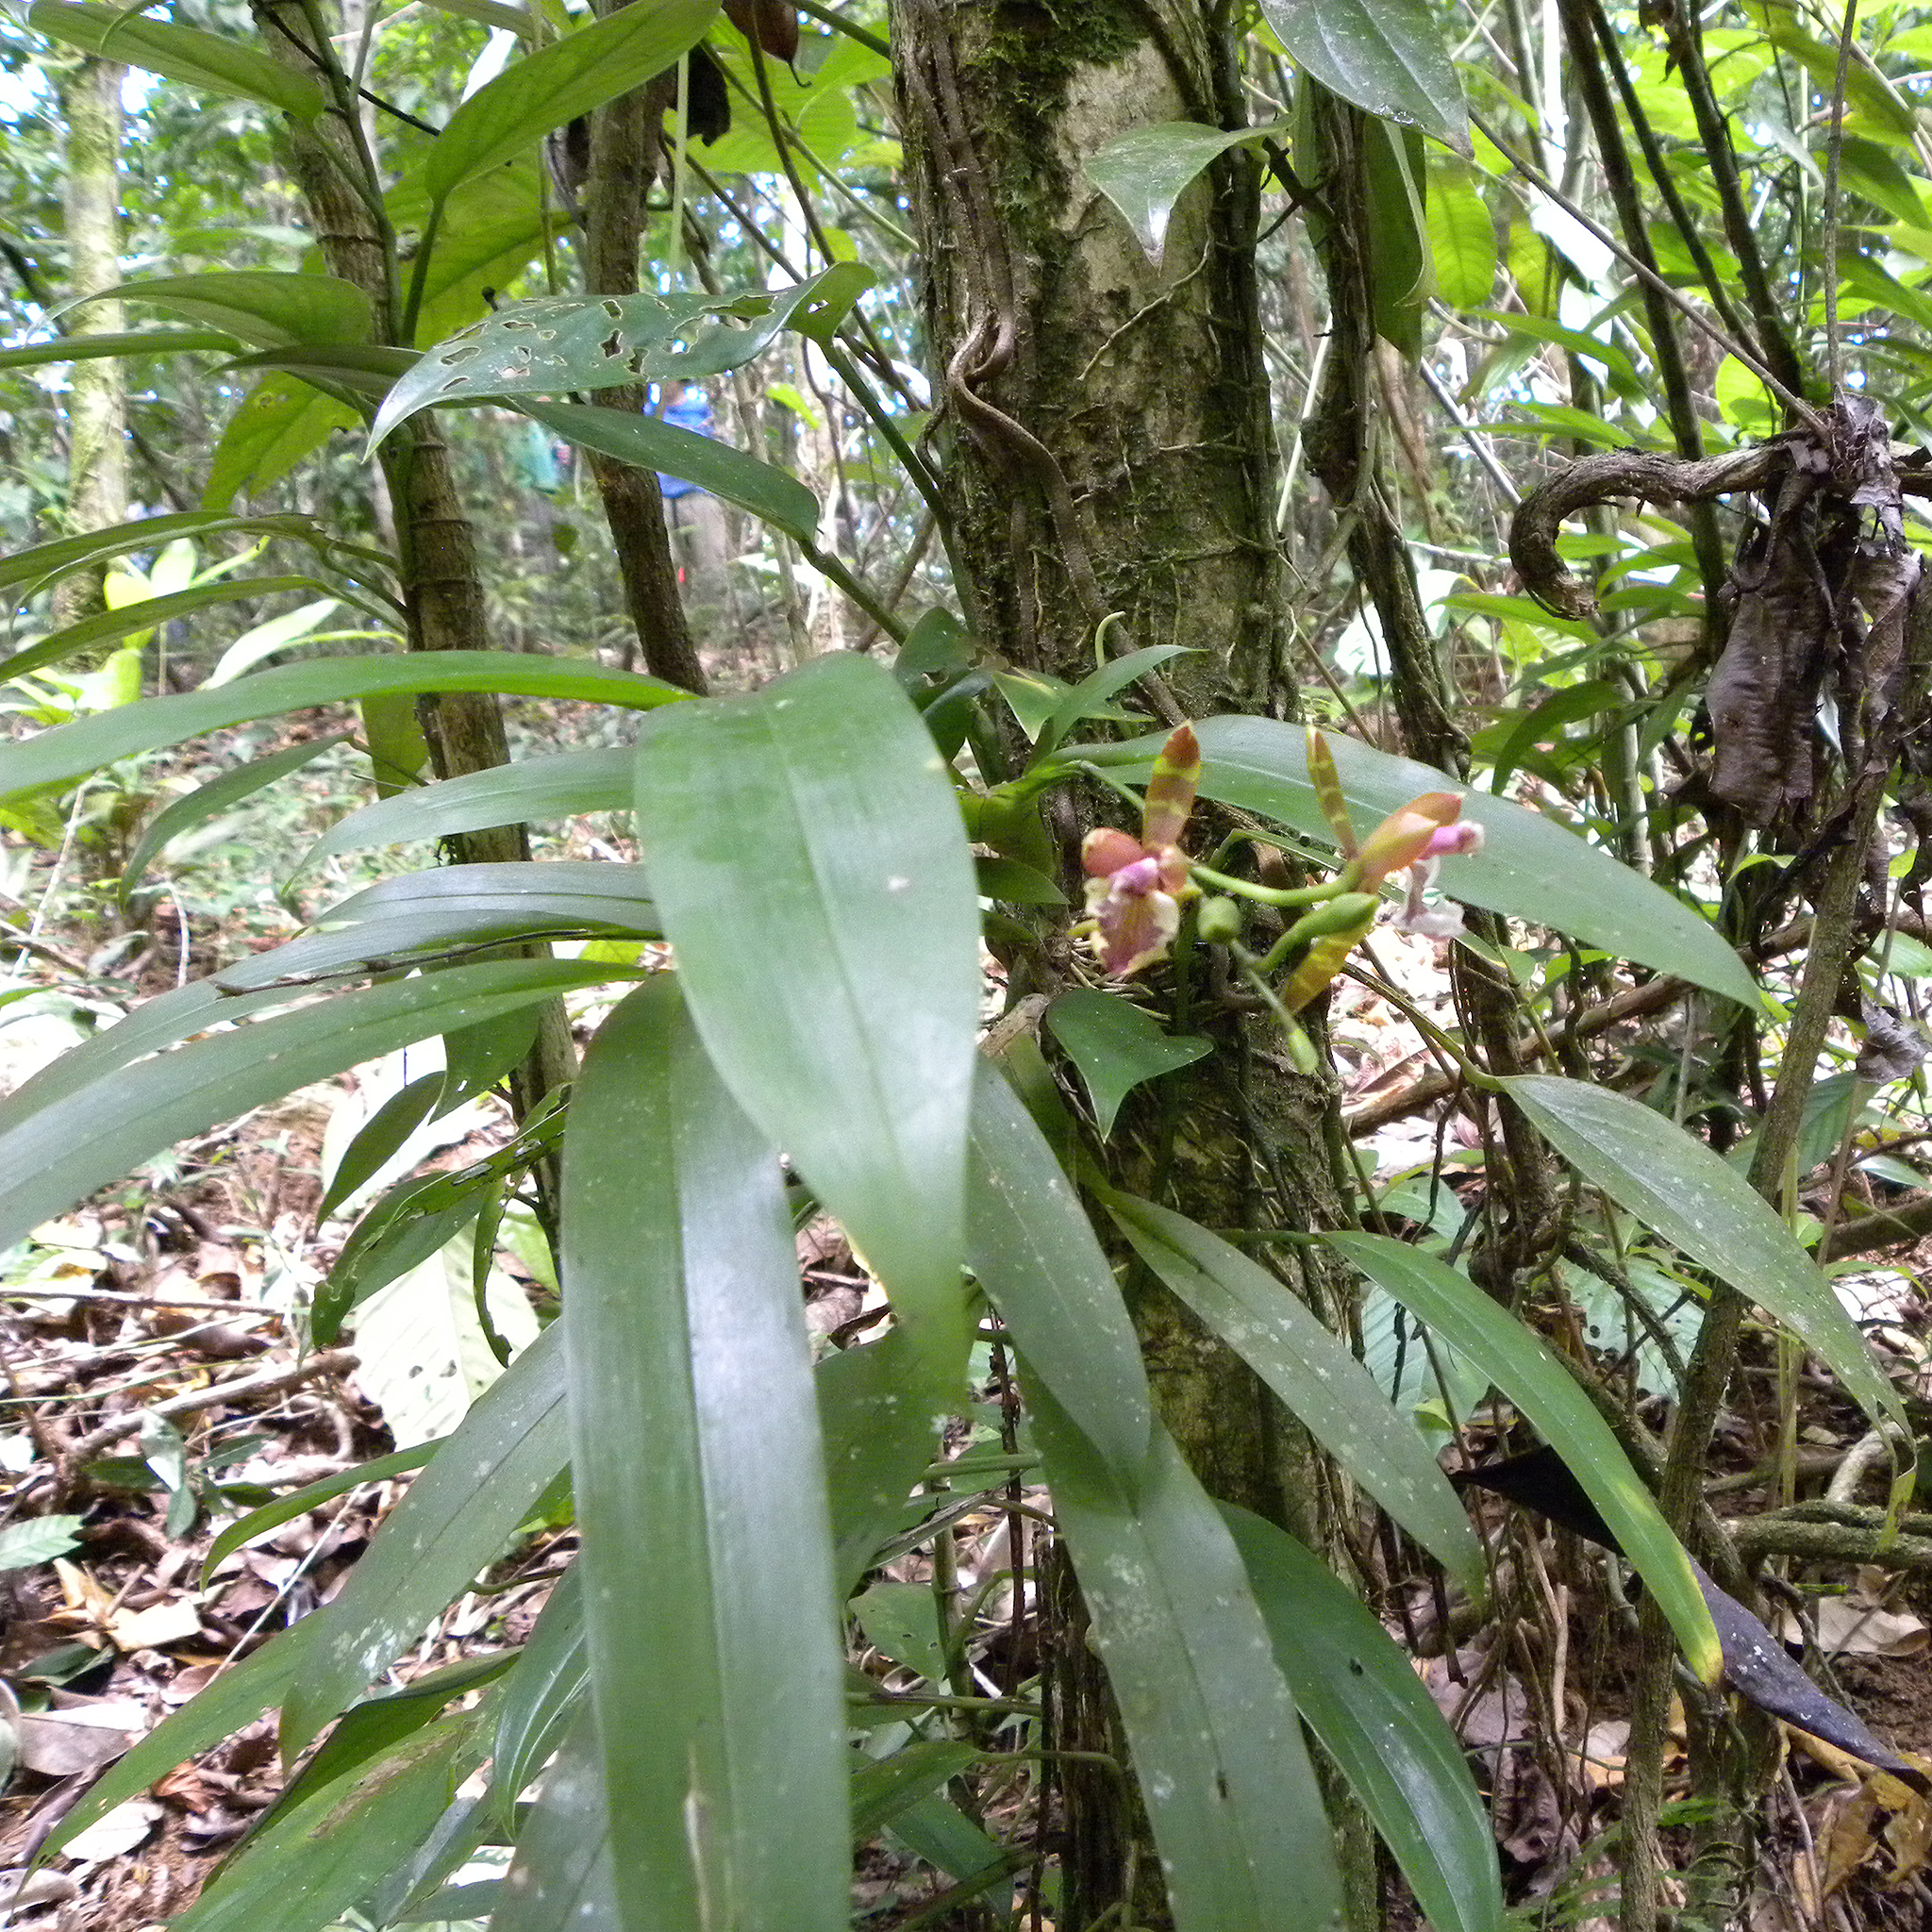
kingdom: Plantae
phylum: Tracheophyta
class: Liliopsida
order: Asparagales
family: Orchidaceae
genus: Aspasia
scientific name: Aspasia epidendroides
